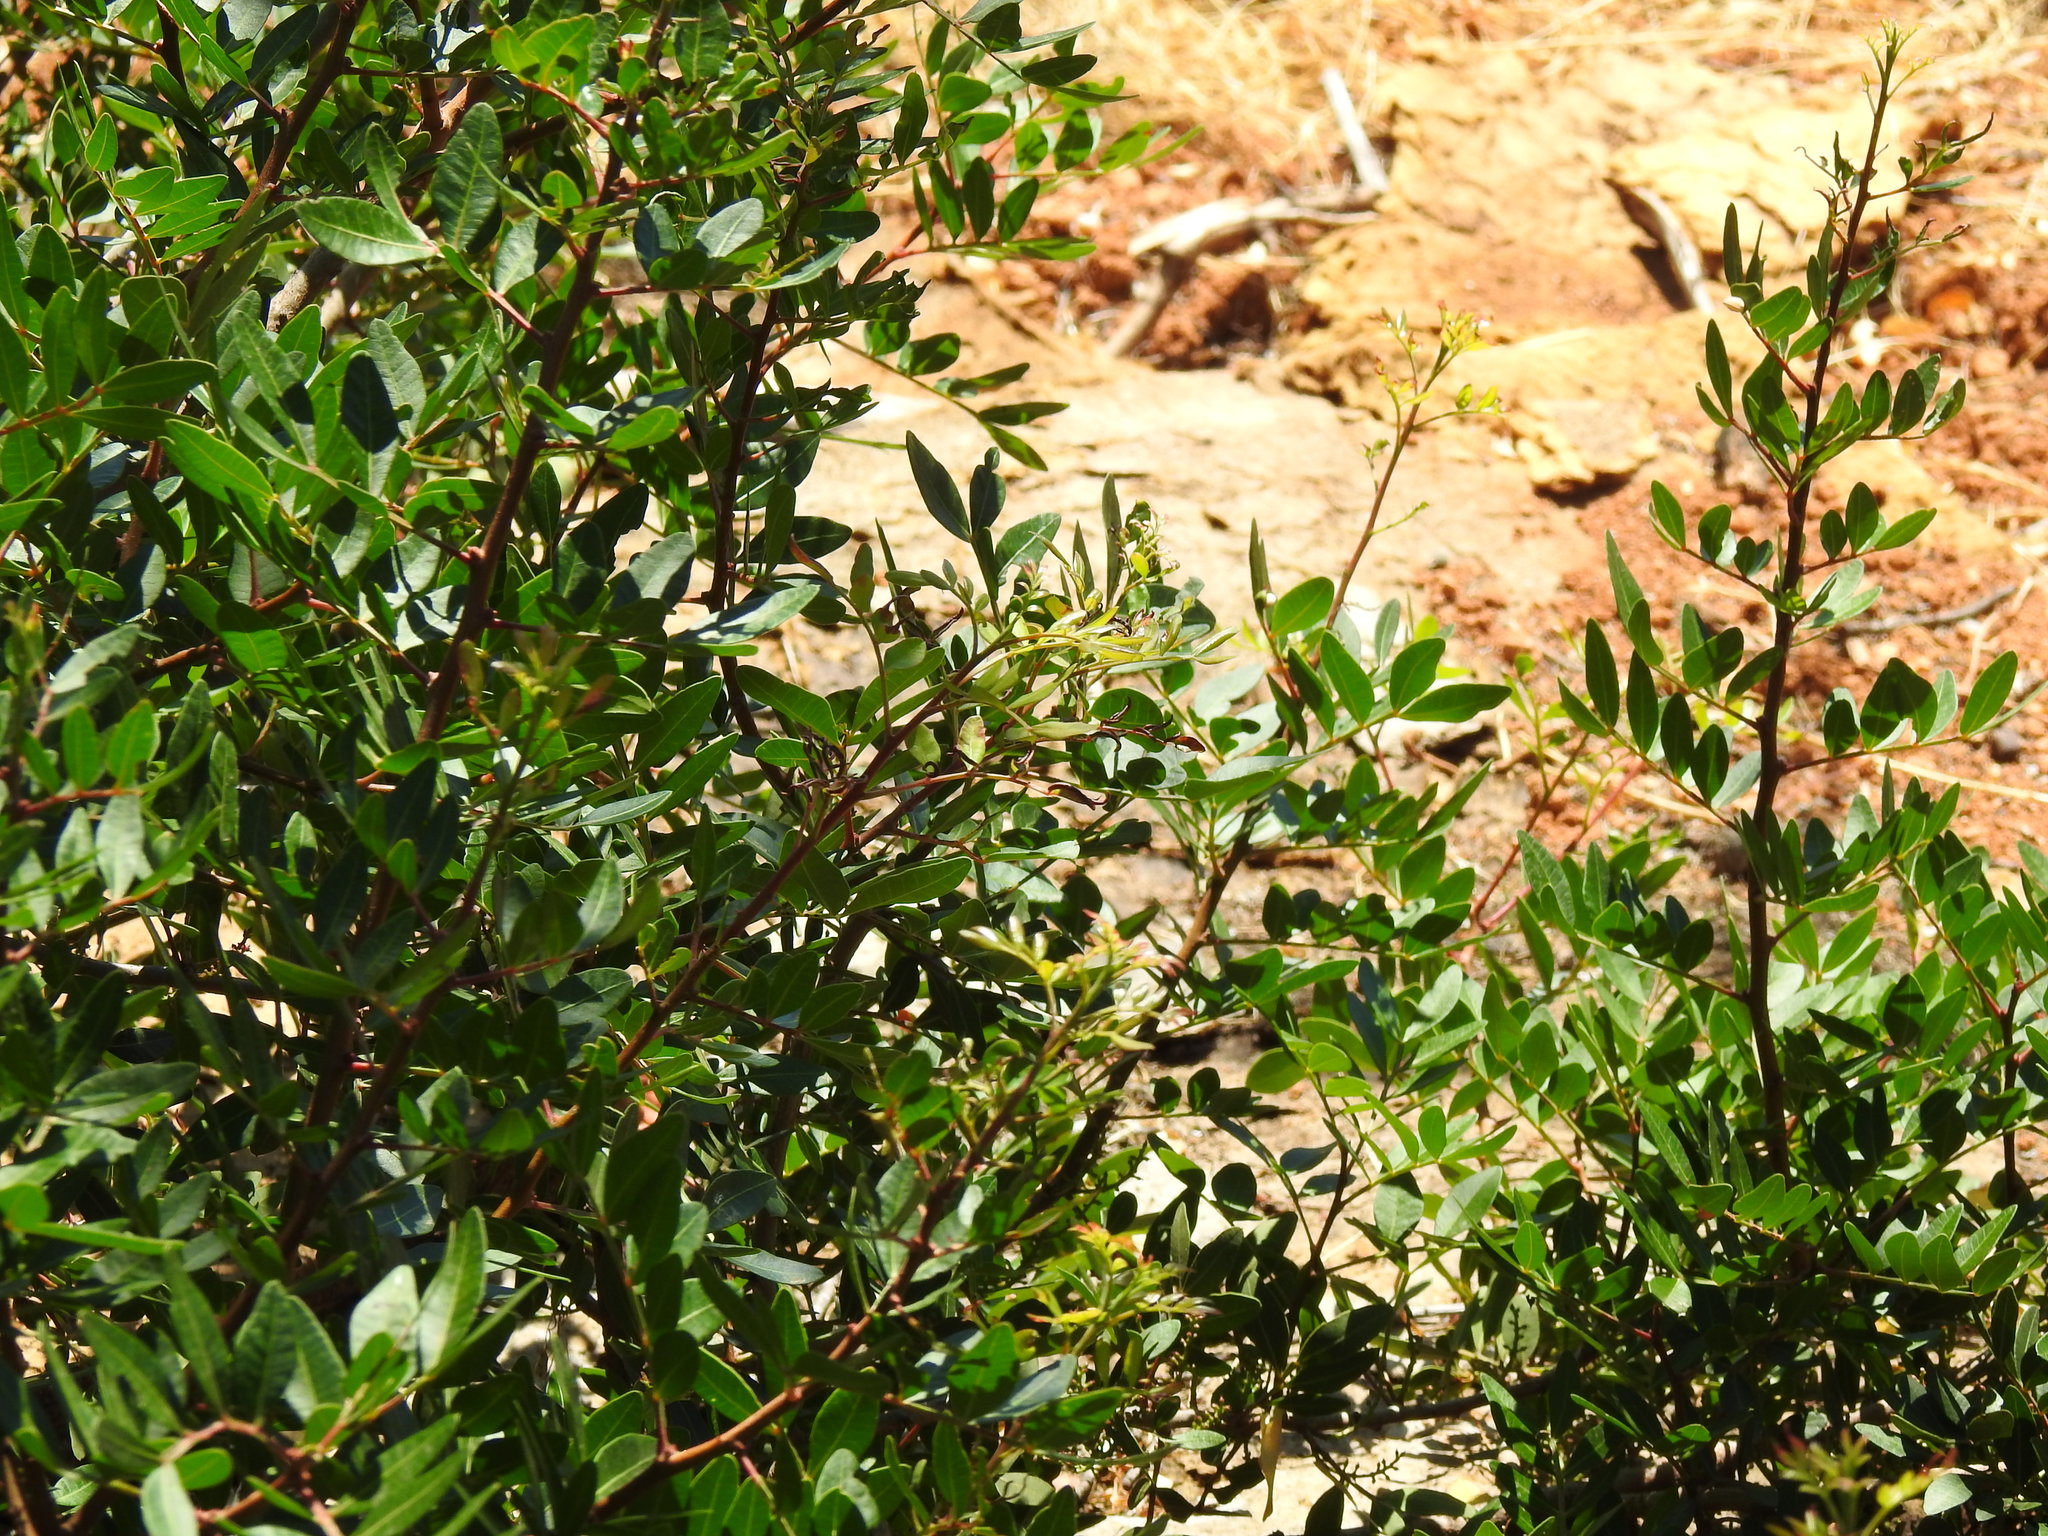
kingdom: Plantae
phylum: Tracheophyta
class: Magnoliopsida
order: Sapindales
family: Anacardiaceae
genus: Pistacia
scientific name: Pistacia lentiscus
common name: Lentisk
